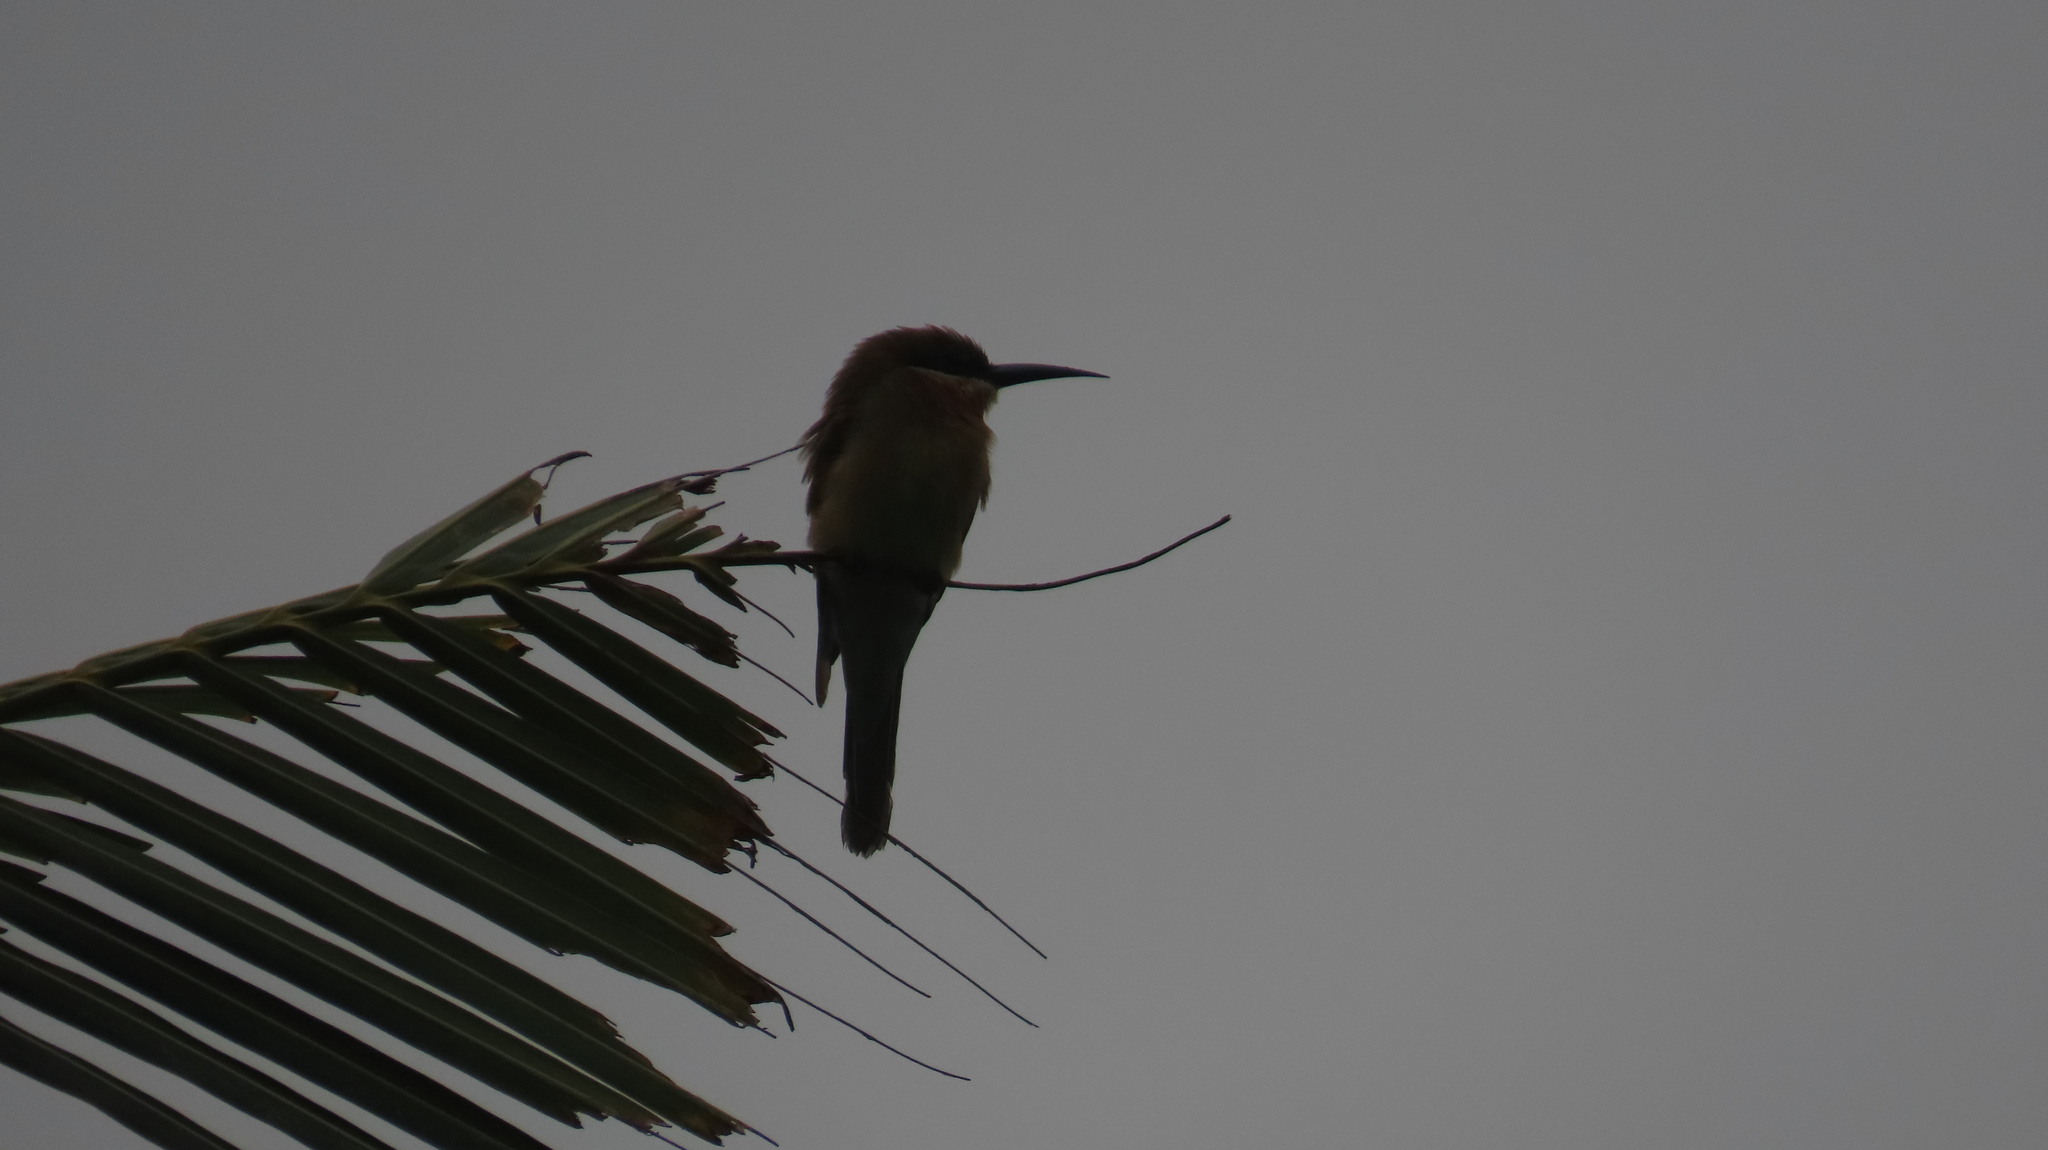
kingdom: Animalia
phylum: Chordata
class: Aves
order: Coraciiformes
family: Meropidae
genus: Merops
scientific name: Merops philippinus
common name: Blue-tailed bee-eater
